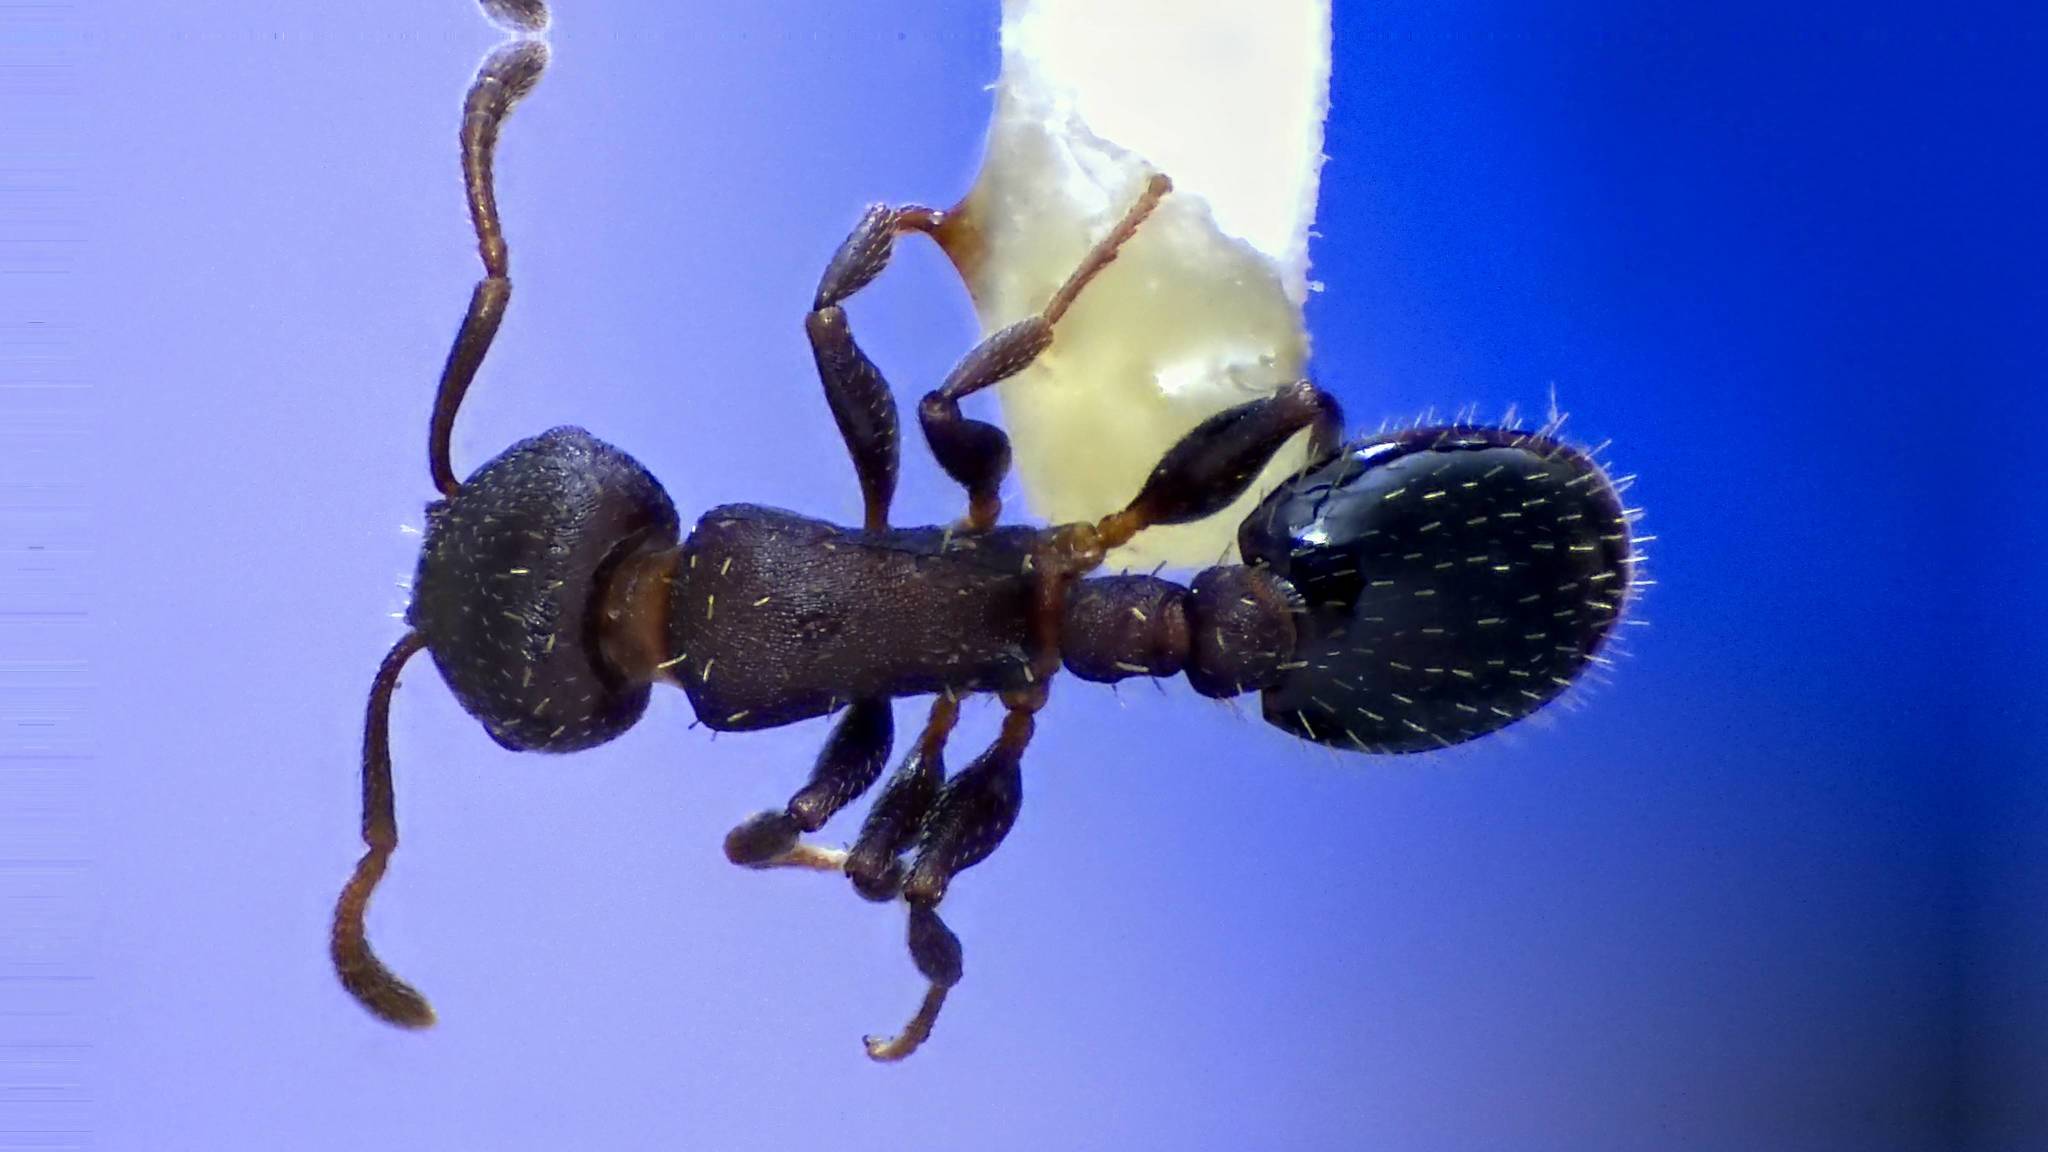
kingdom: Animalia
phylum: Arthropoda
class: Insecta
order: Hymenoptera
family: Formicidae
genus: Leptothorax
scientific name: Leptothorax schaumii
